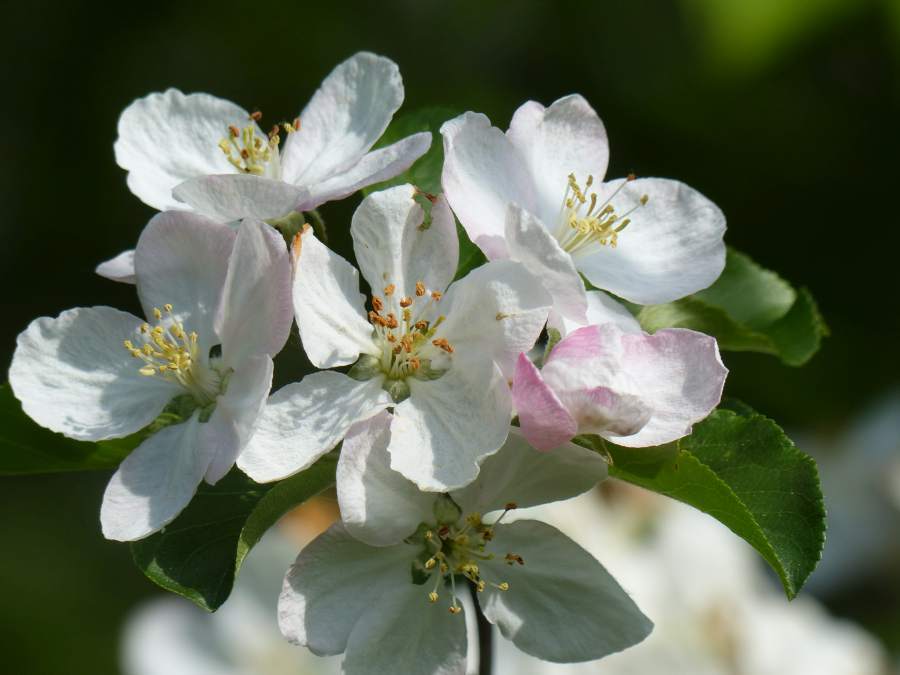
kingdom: Plantae
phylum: Tracheophyta
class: Magnoliopsida
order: Rosales
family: Rosaceae
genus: Malus
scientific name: Malus domestica
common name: Apple
